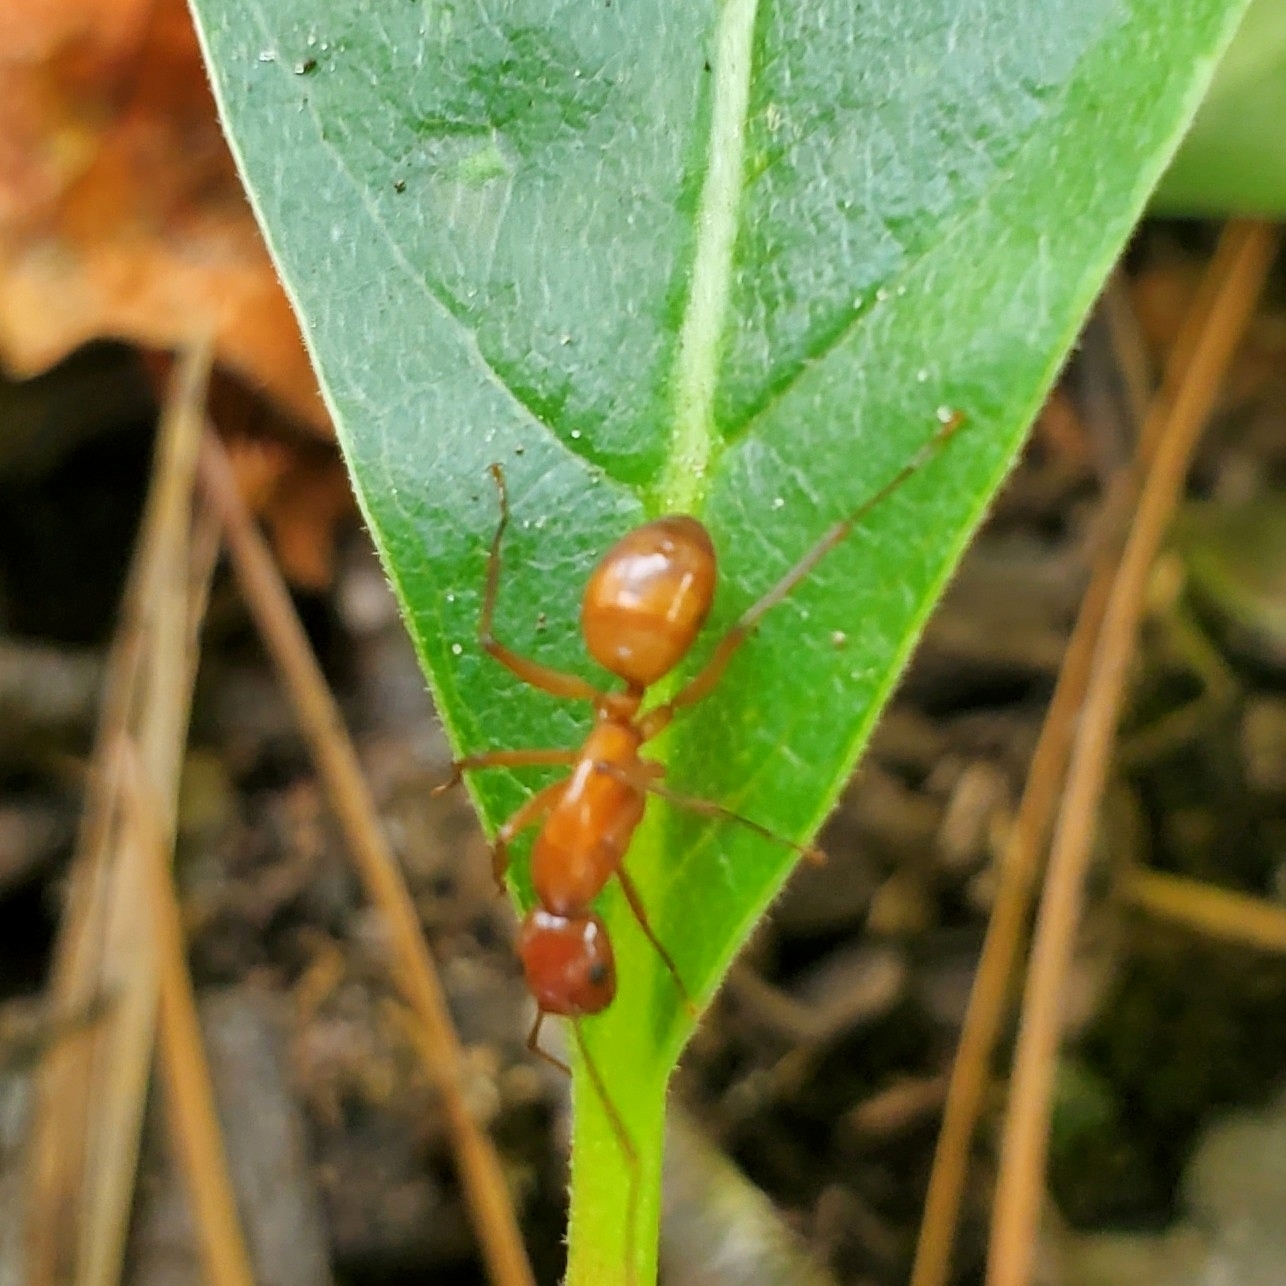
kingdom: Animalia
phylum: Arthropoda
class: Insecta
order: Hymenoptera
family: Formicidae
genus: Camponotus
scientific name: Camponotus castaneus
